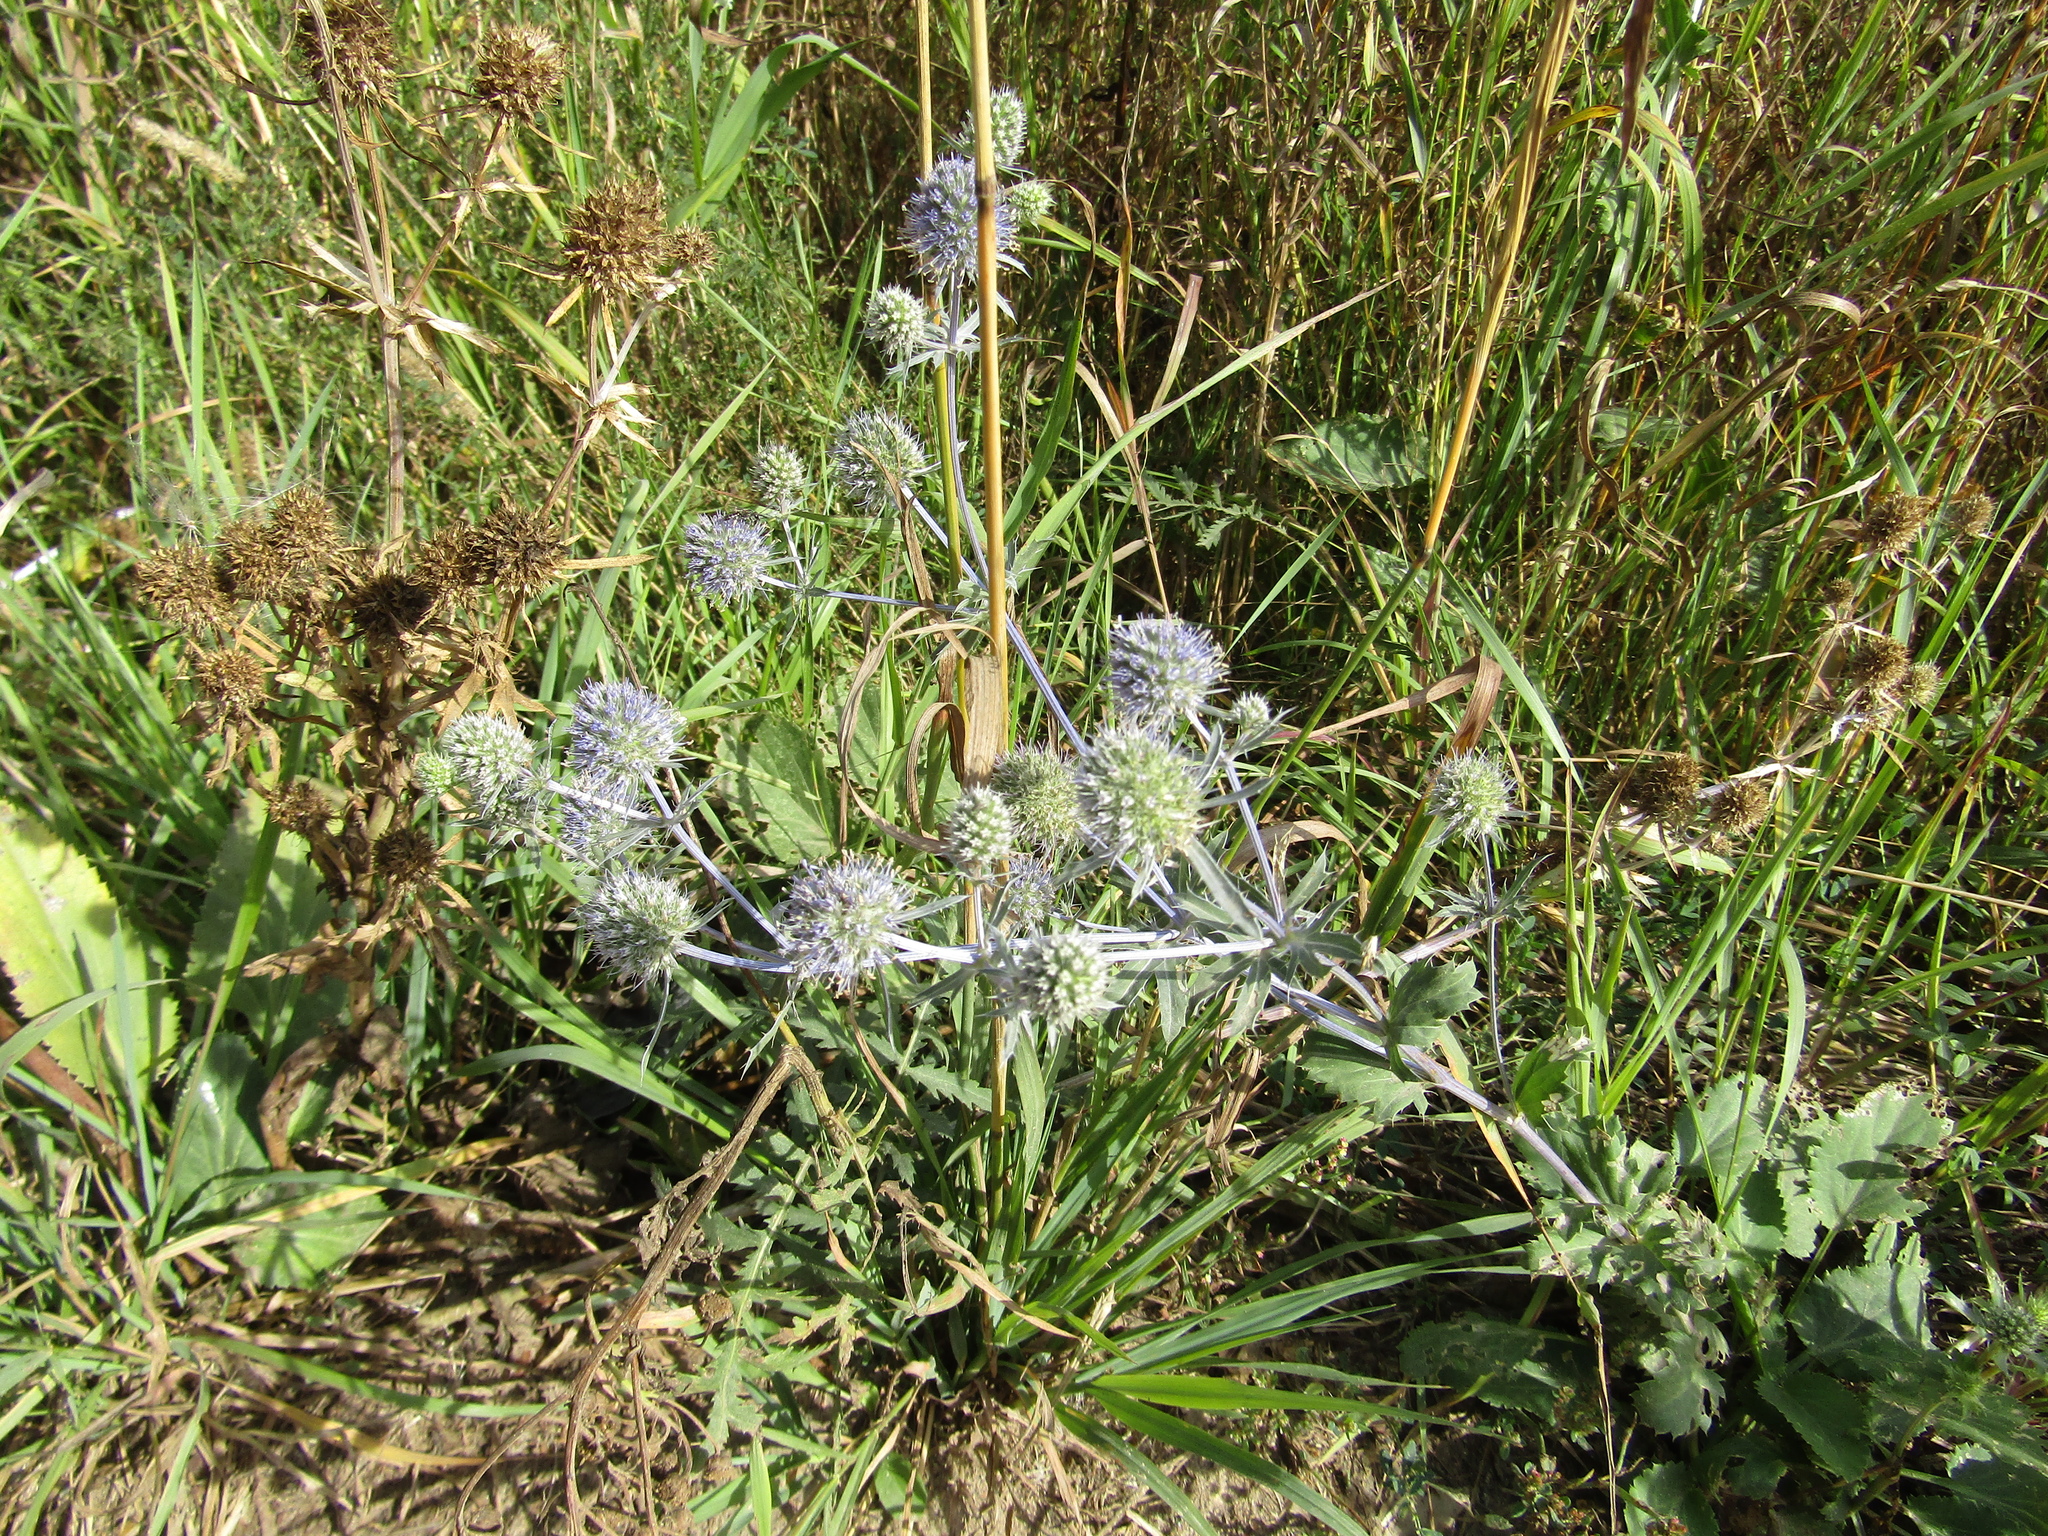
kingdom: Plantae
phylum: Tracheophyta
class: Magnoliopsida
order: Apiales
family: Apiaceae
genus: Eryngium
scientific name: Eryngium planum
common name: Blue eryngo
